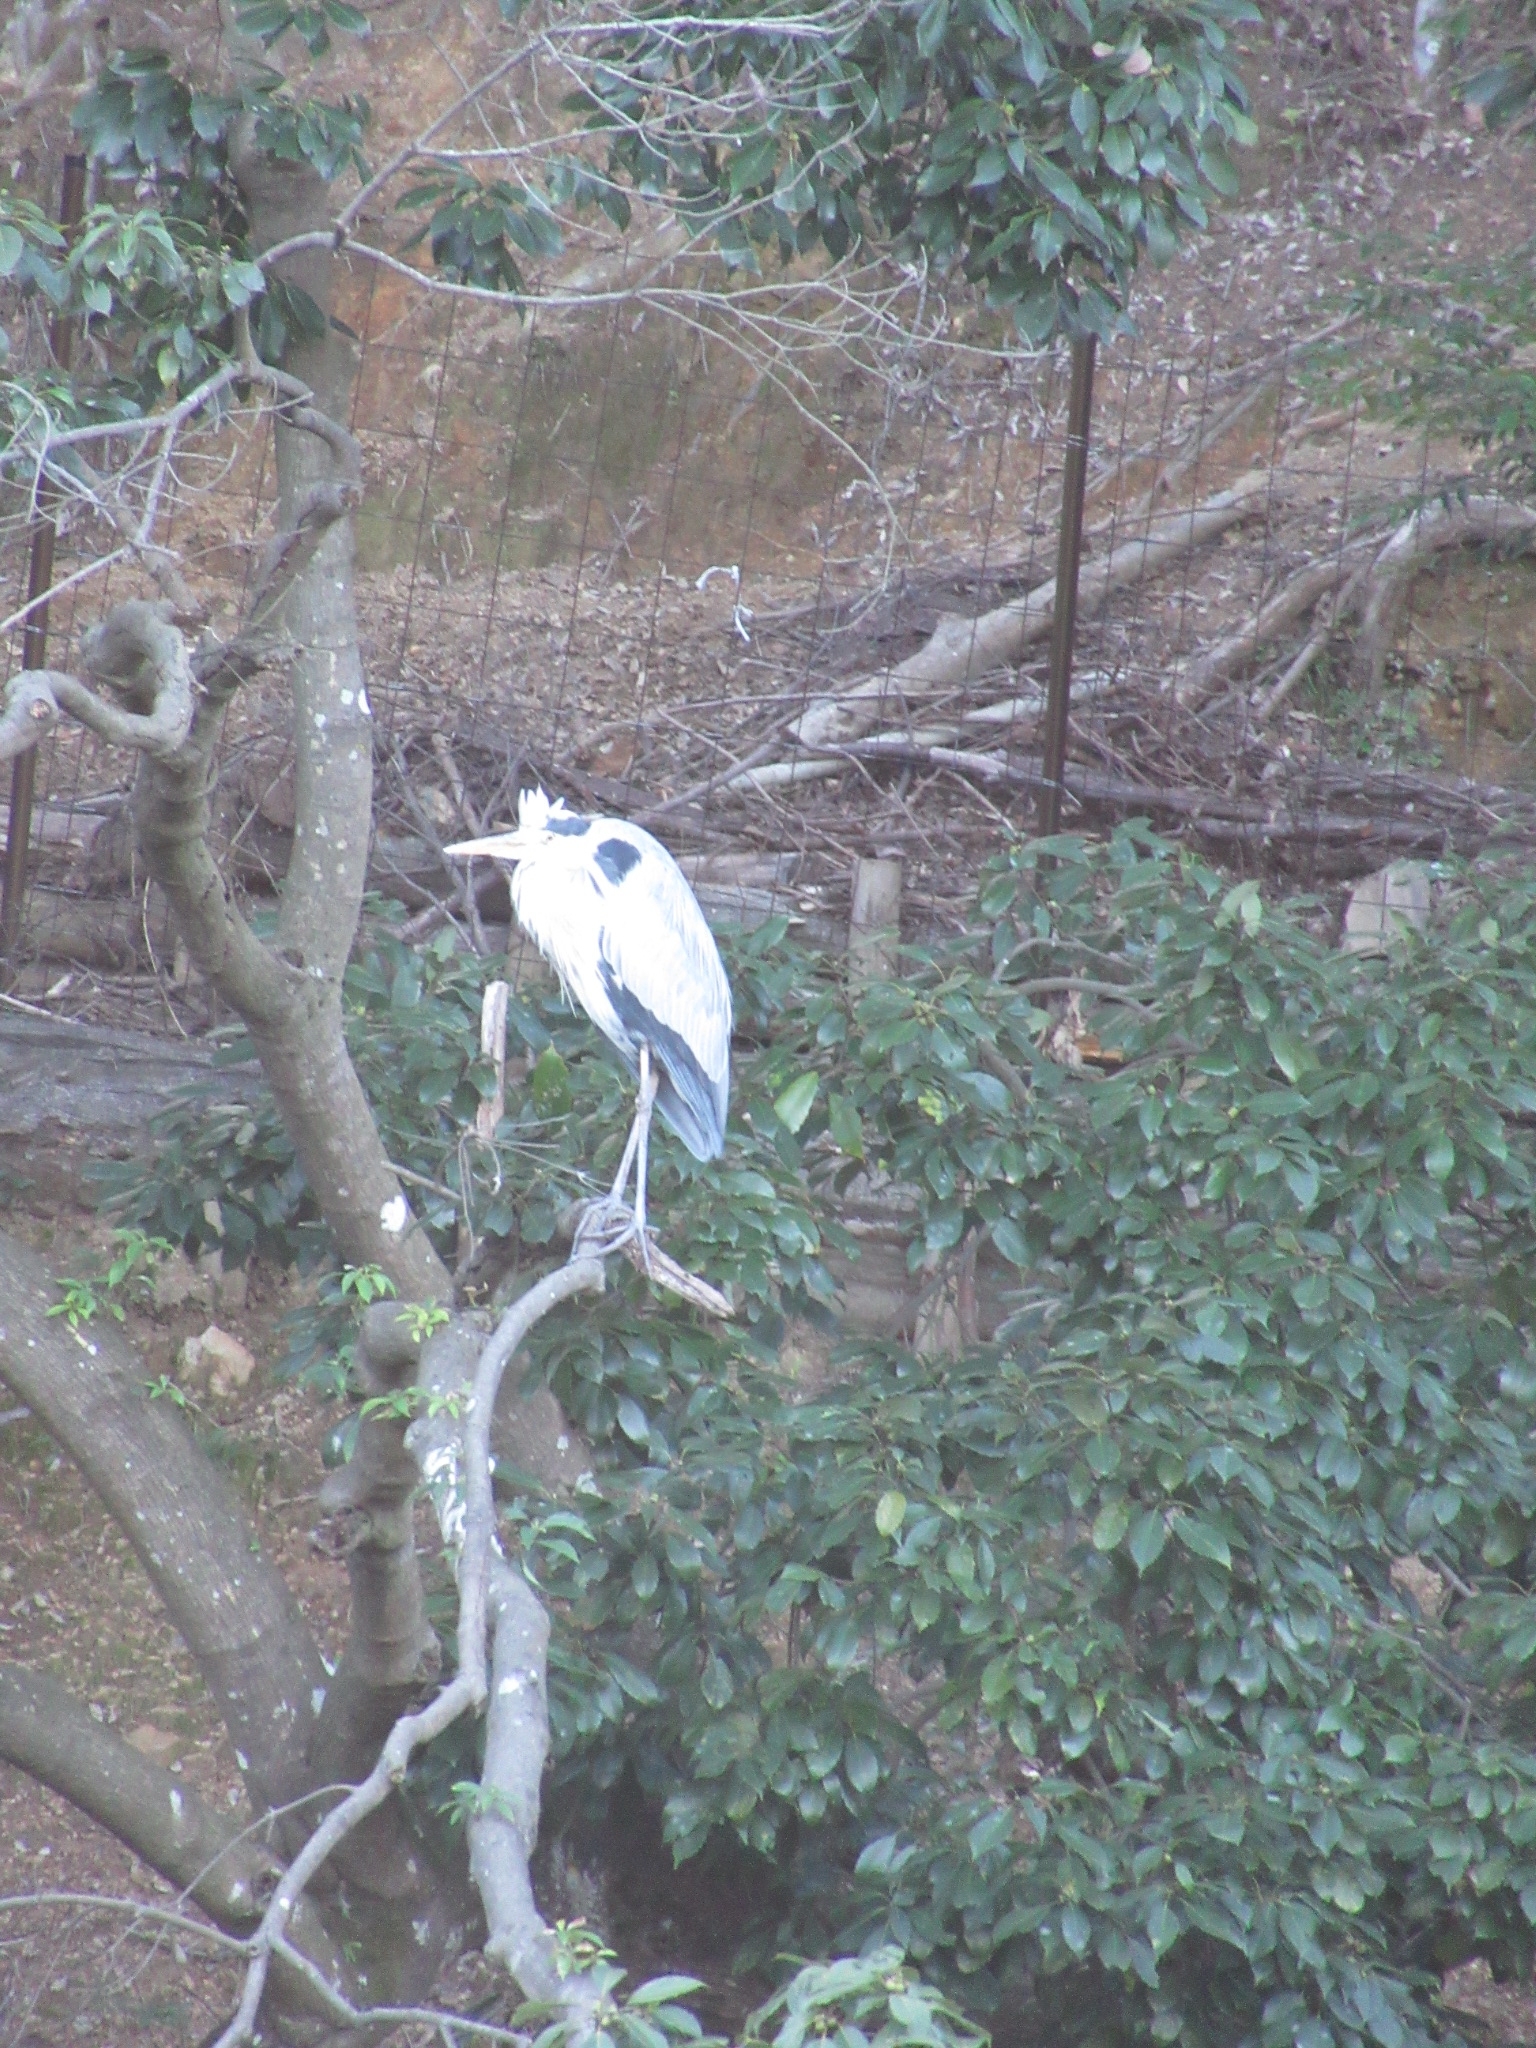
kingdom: Animalia
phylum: Chordata
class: Aves
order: Pelecaniformes
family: Ardeidae
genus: Ardea
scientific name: Ardea cinerea
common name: Grey heron
